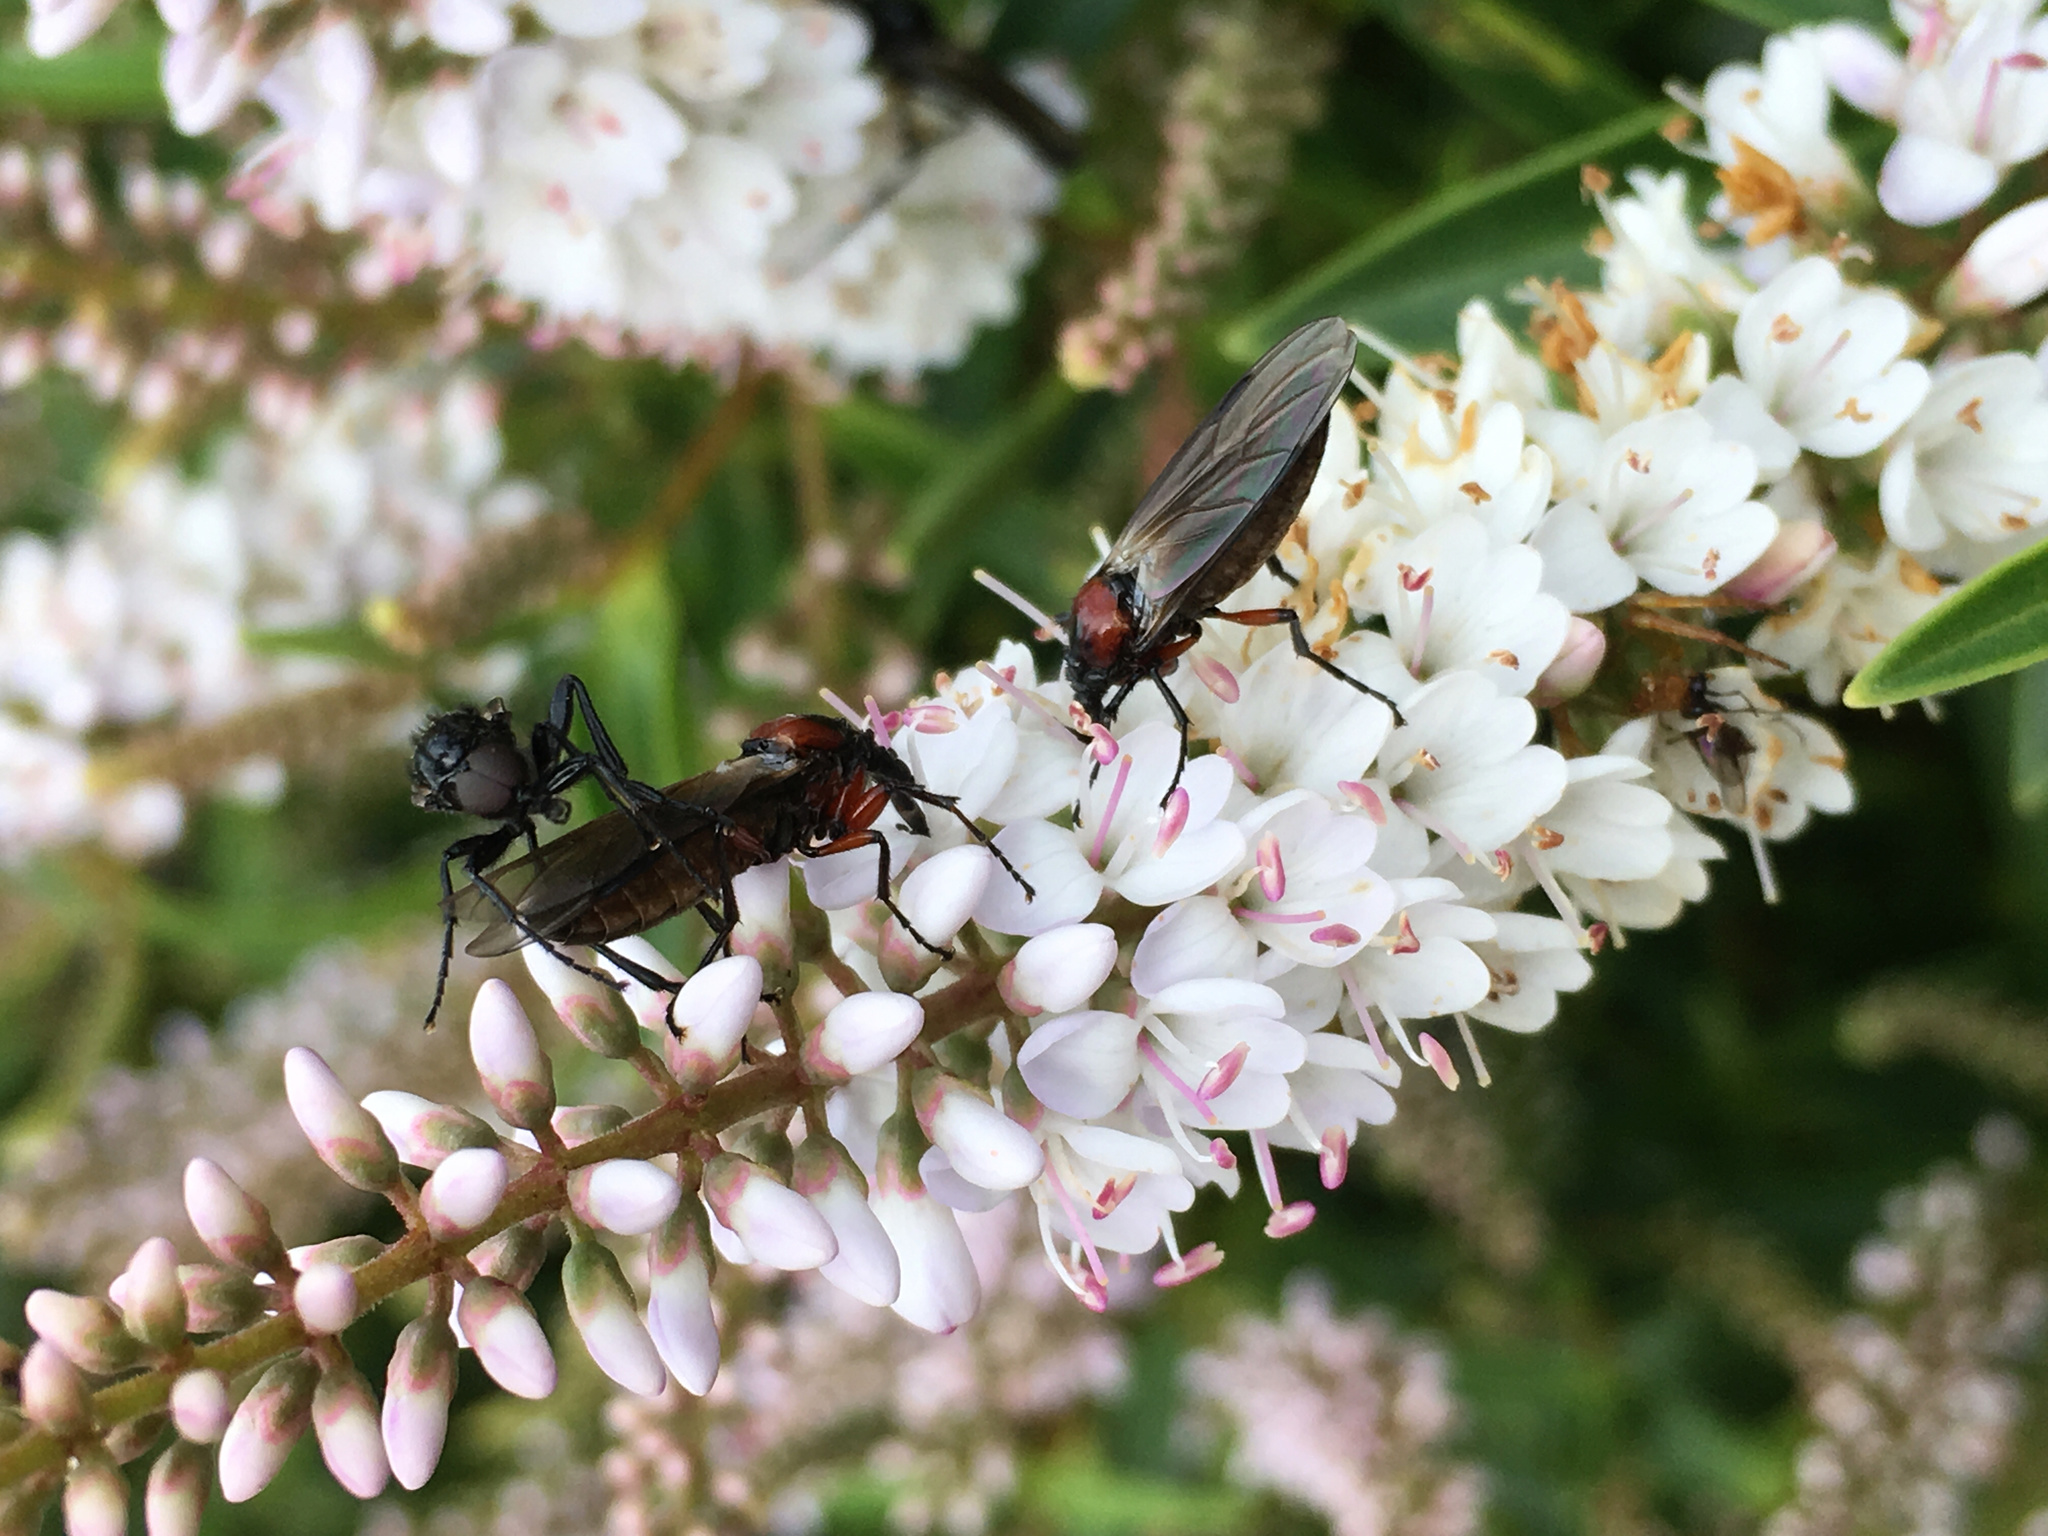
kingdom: Animalia
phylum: Arthropoda
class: Insecta
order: Diptera
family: Bibionidae
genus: Dilophus
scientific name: Dilophus nigrostigma
